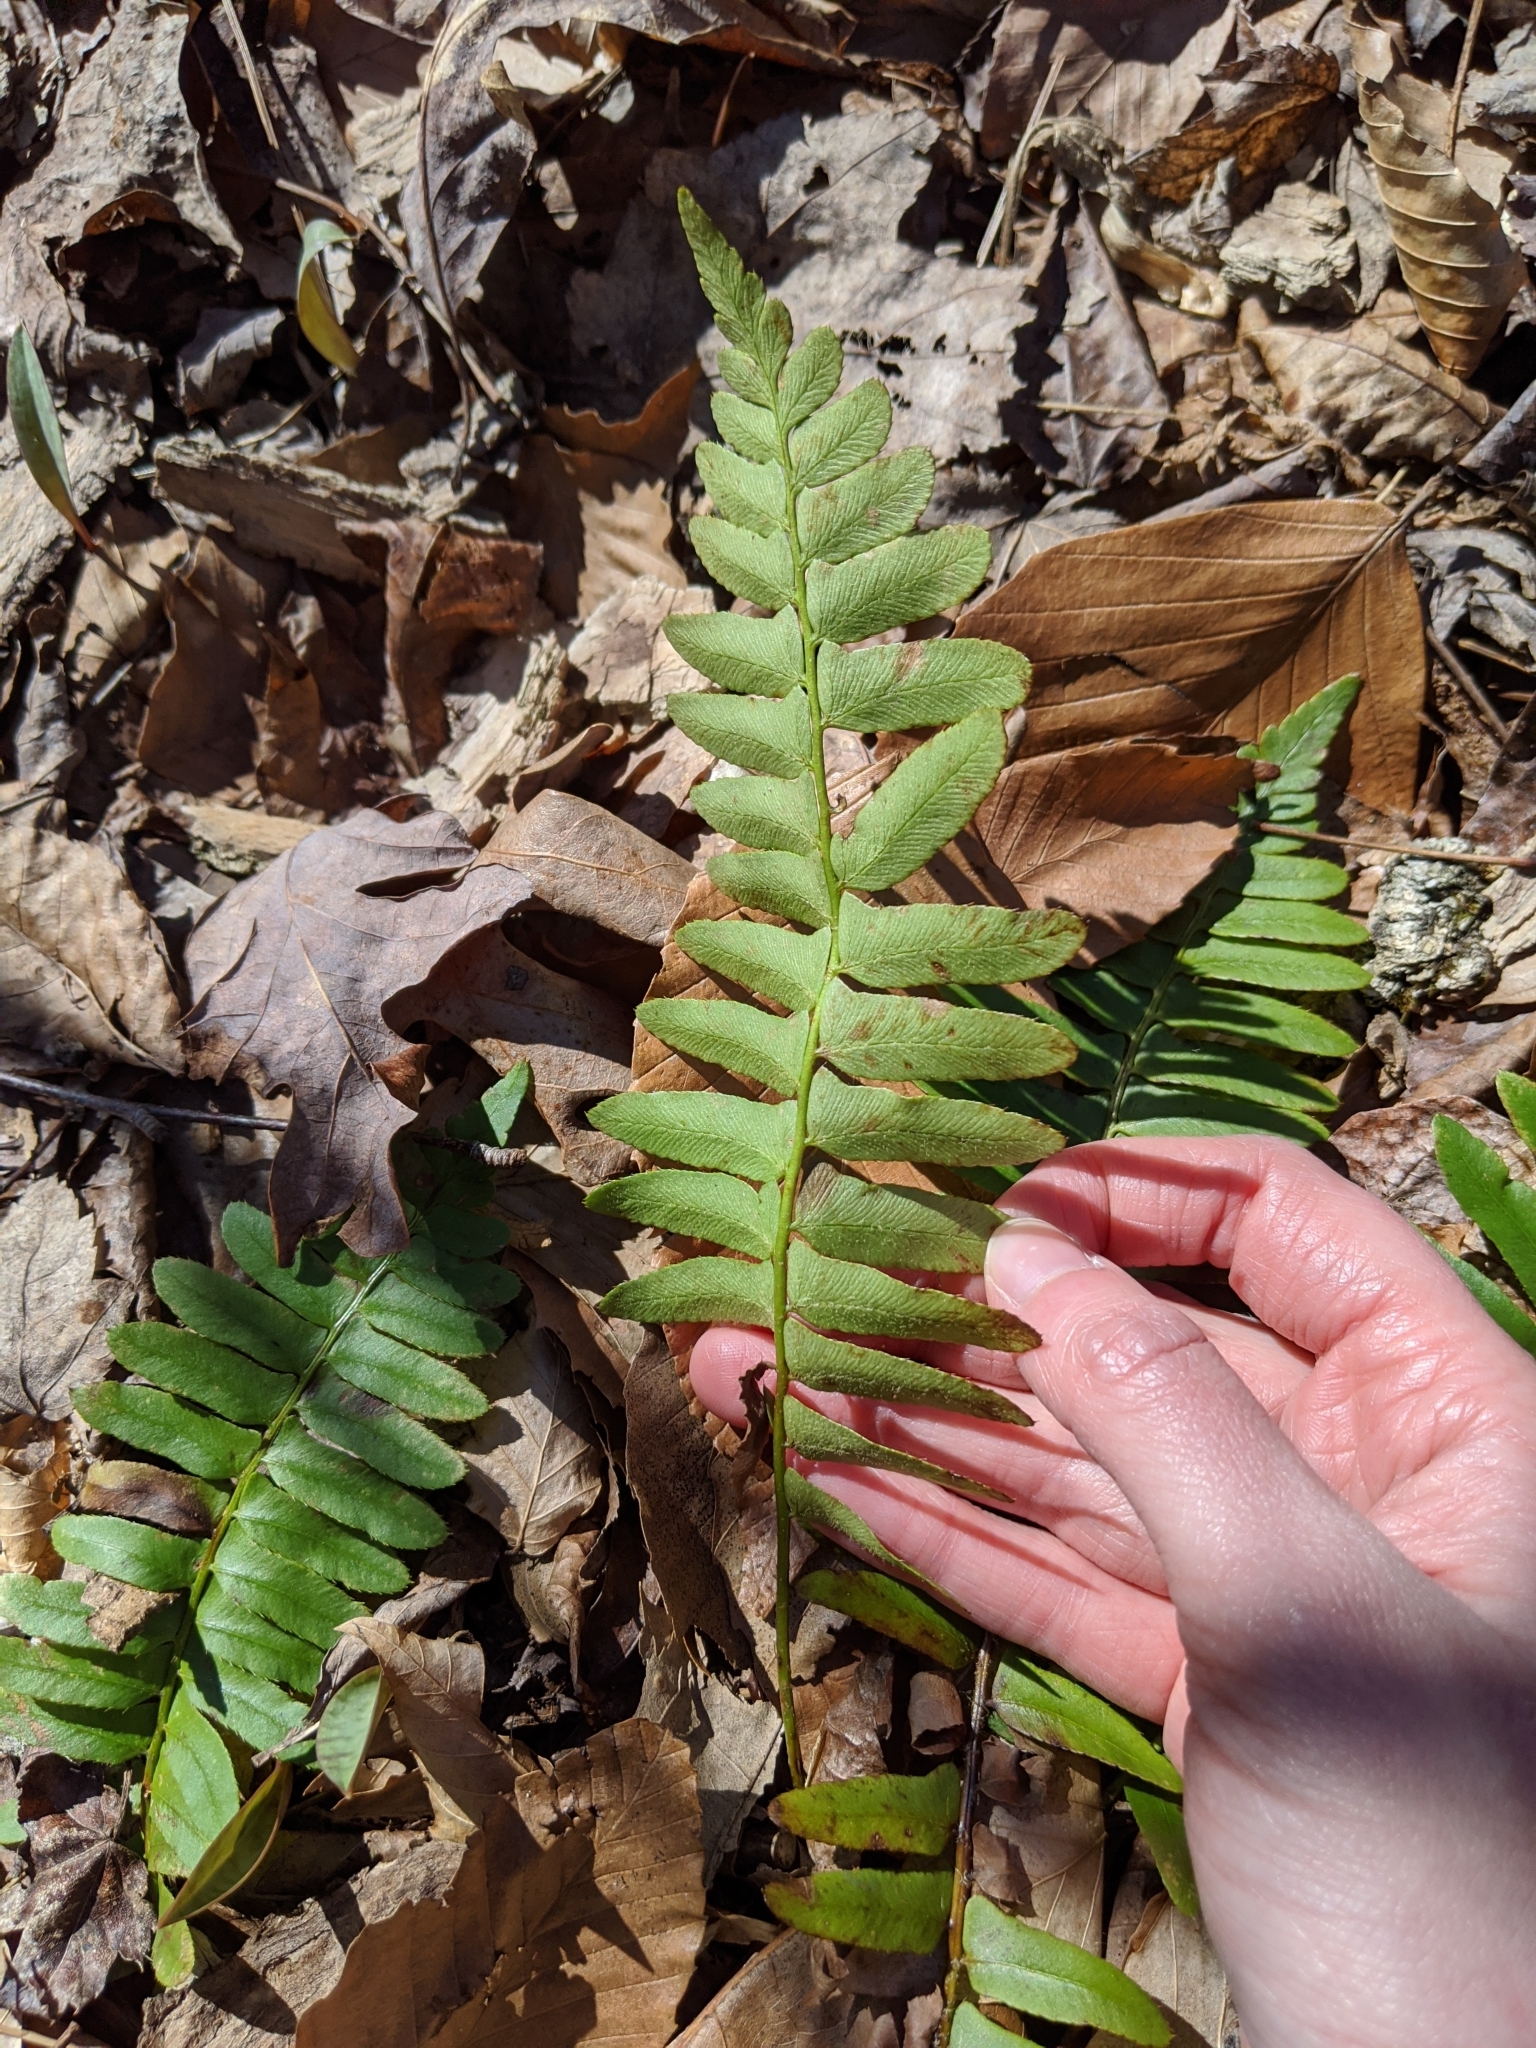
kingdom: Plantae
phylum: Tracheophyta
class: Polypodiopsida
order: Polypodiales
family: Dryopteridaceae
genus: Polystichum
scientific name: Polystichum acrostichoides
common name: Christmas fern
